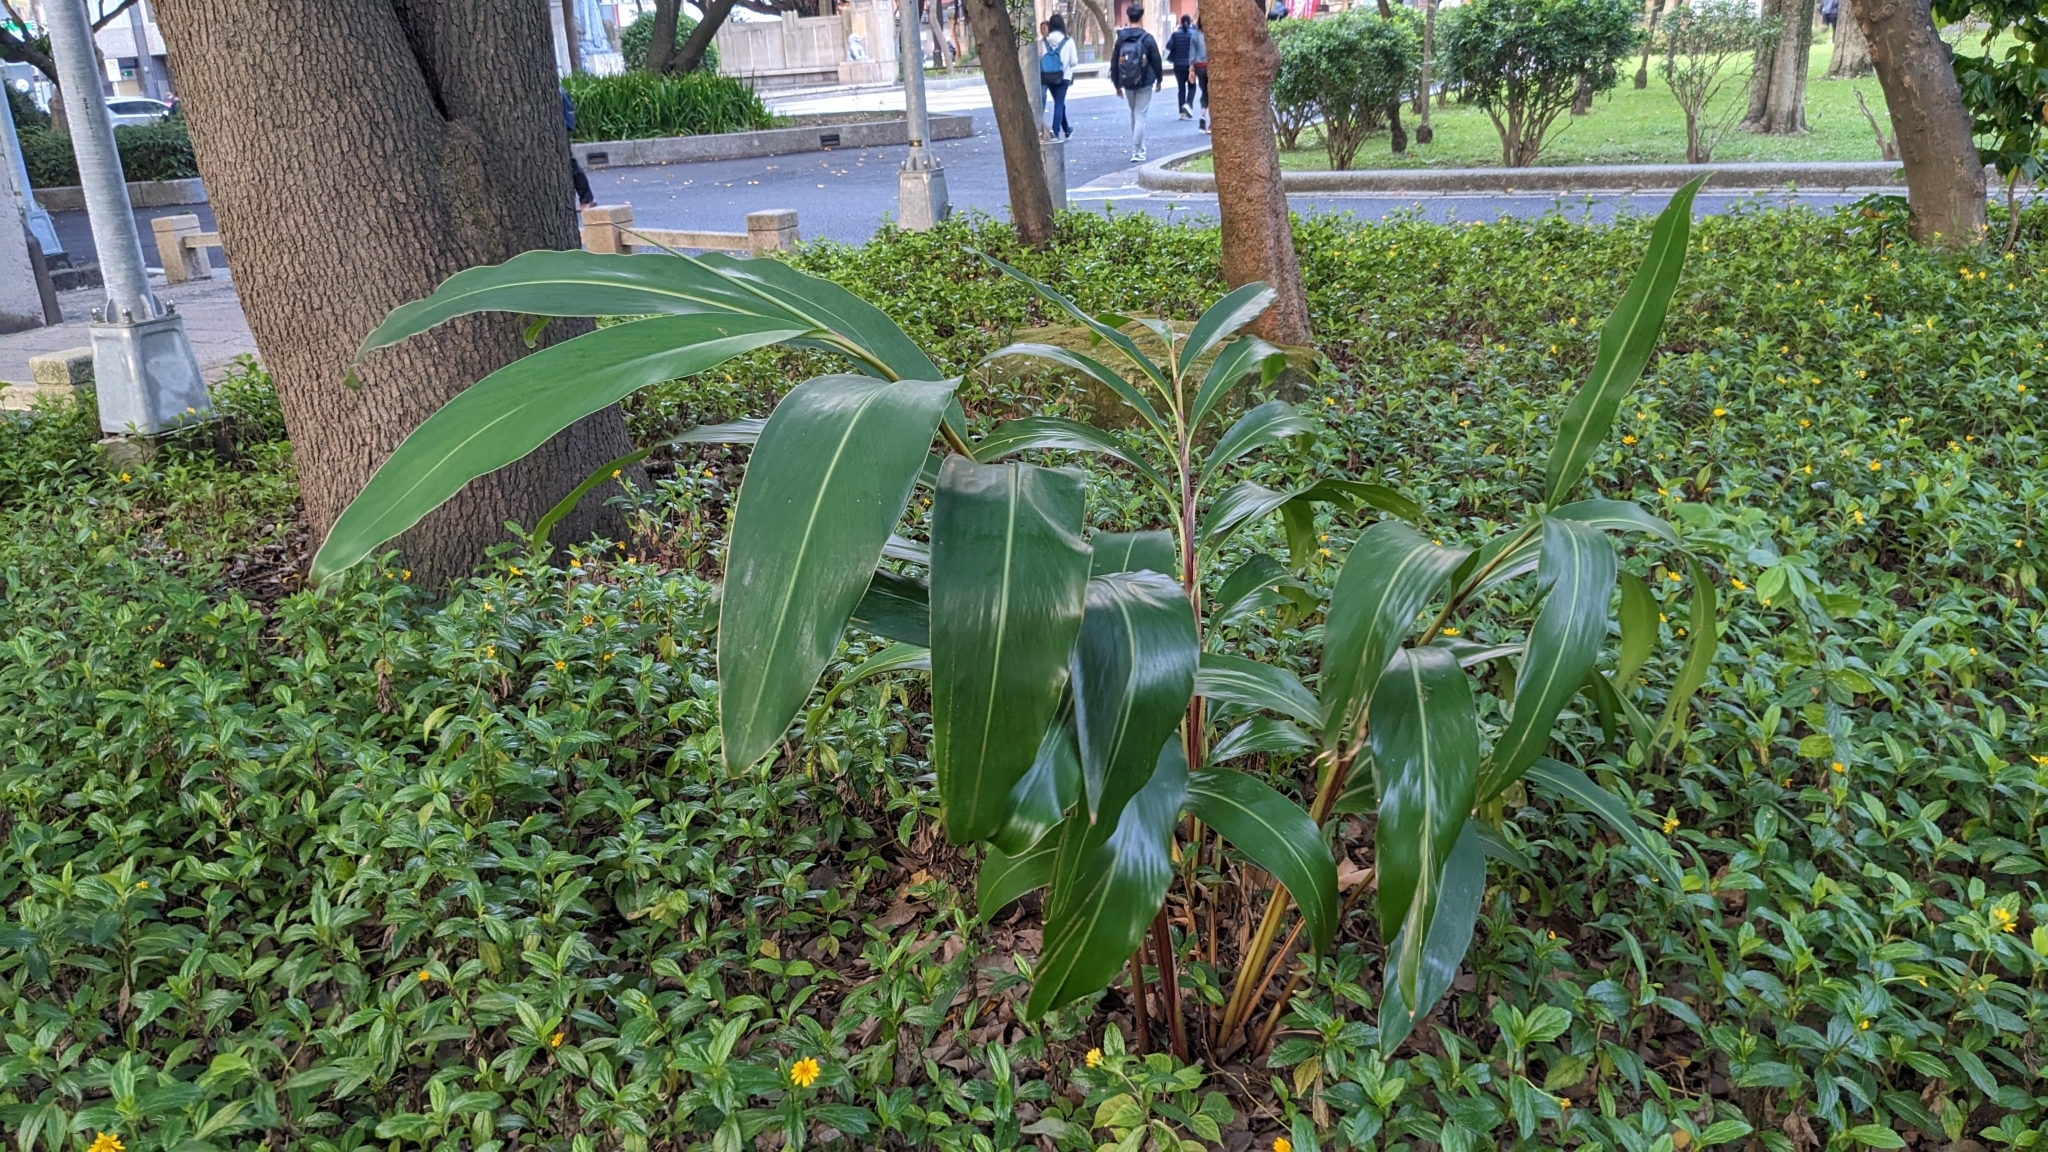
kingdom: Plantae
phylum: Tracheophyta
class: Liliopsida
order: Zingiberales
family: Zingiberaceae
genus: Alpinia
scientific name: Alpinia zerumbet
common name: Shellplant
